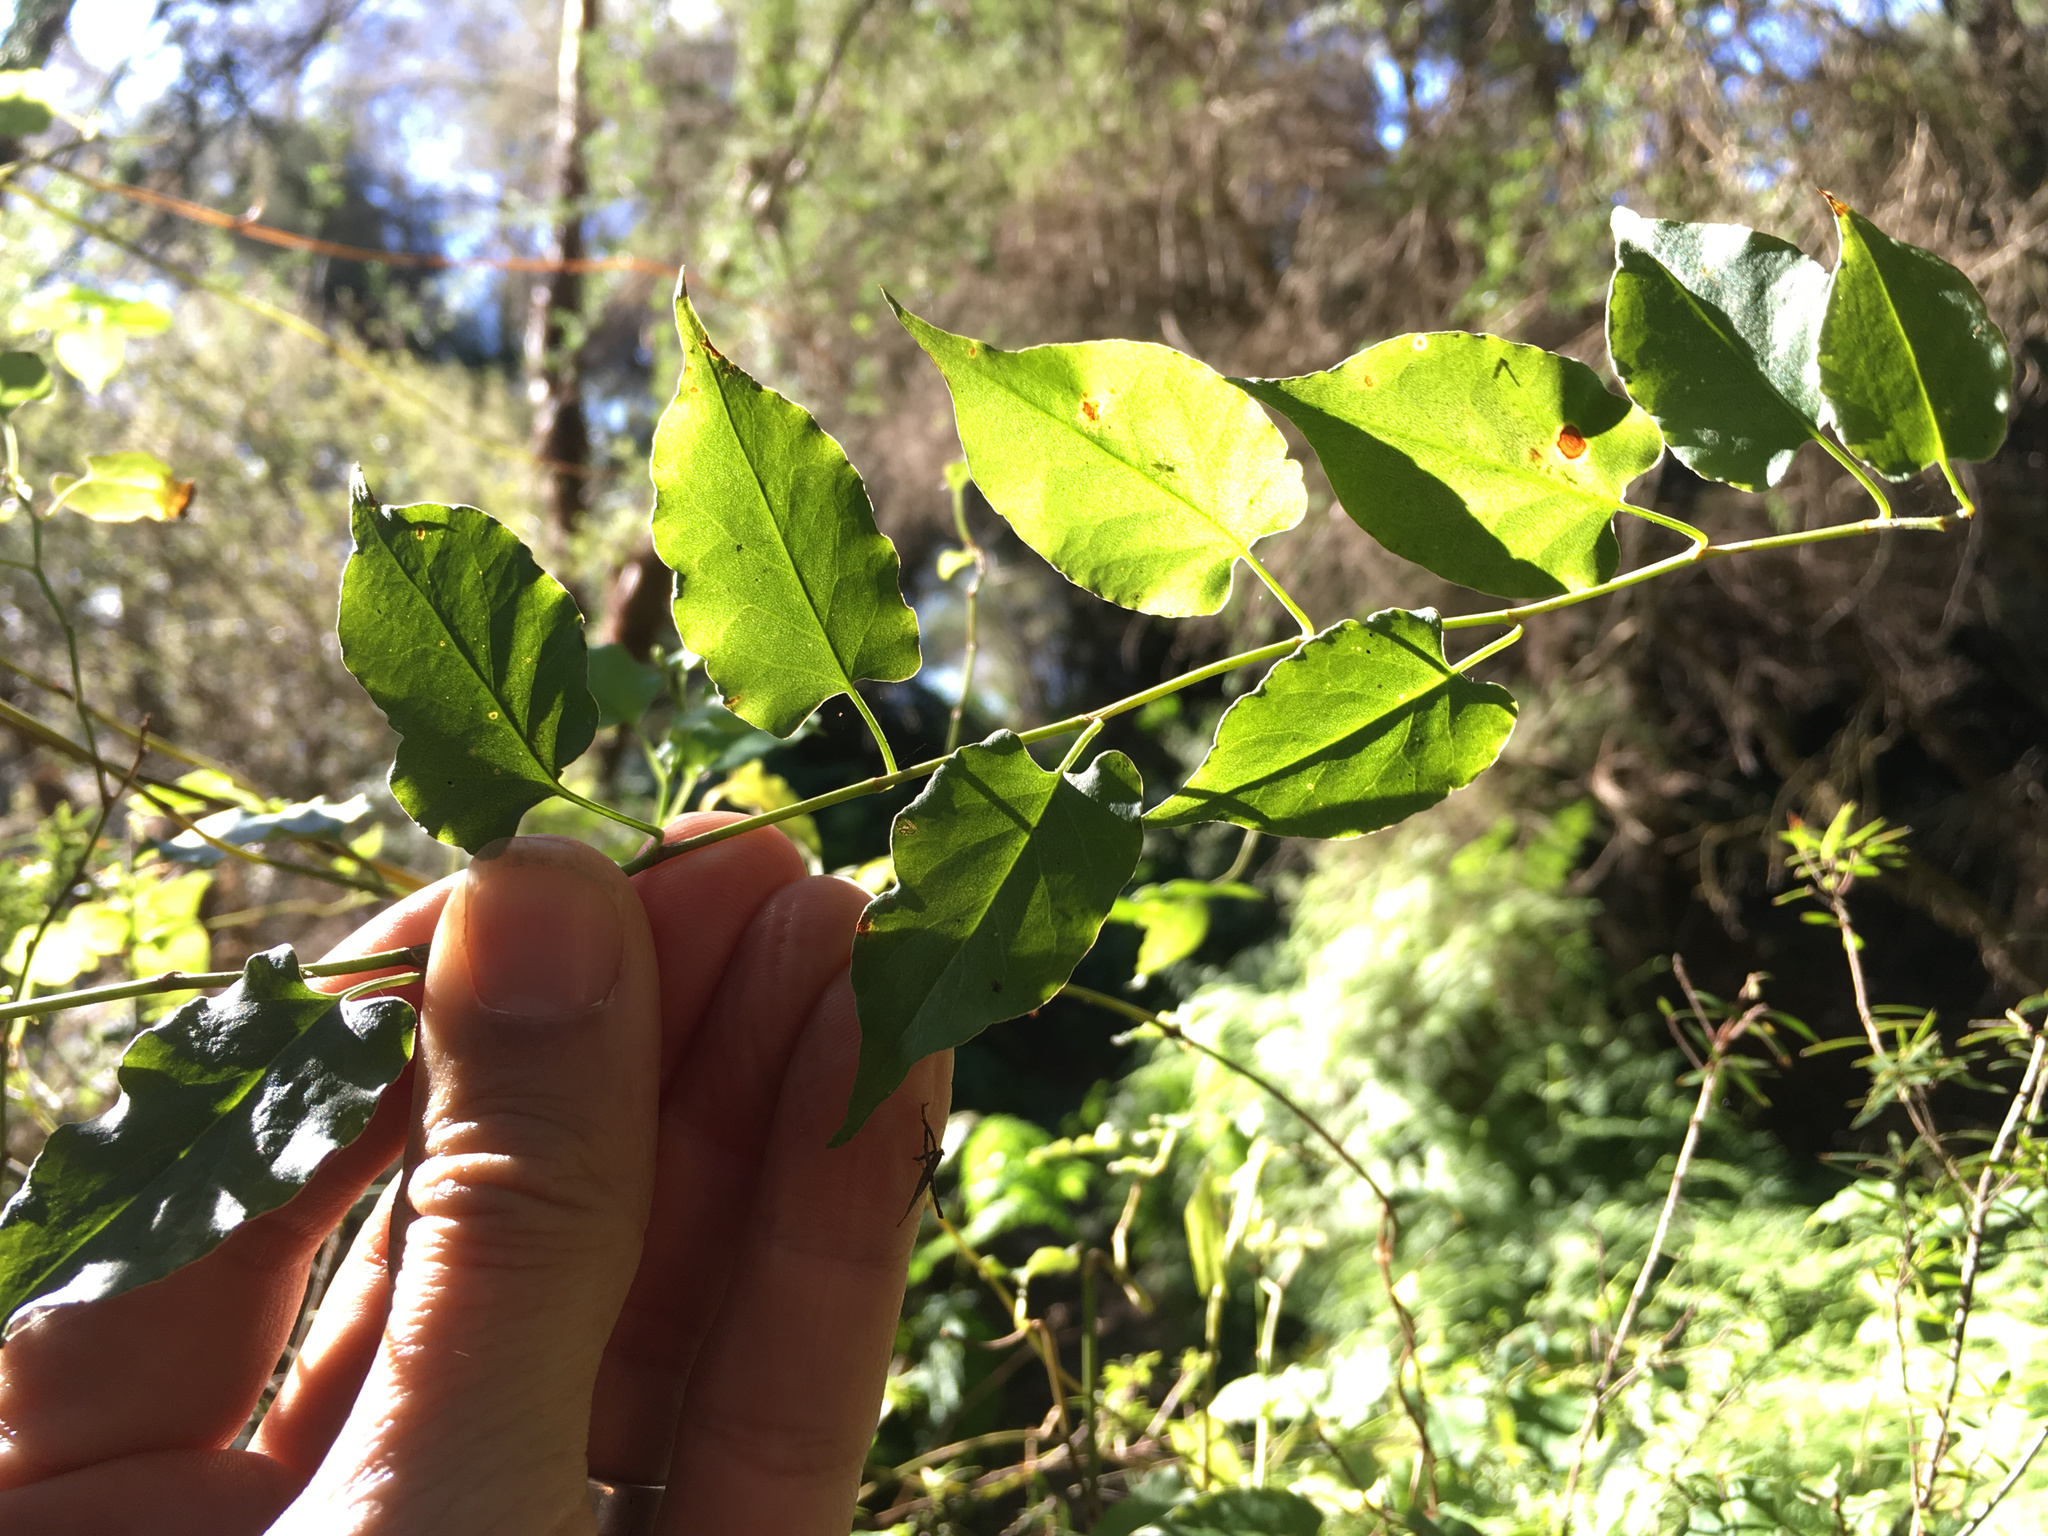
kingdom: Plantae
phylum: Tracheophyta
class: Magnoliopsida
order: Caryophyllales
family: Polygonaceae
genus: Muehlenbeckia
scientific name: Muehlenbeckia australis
